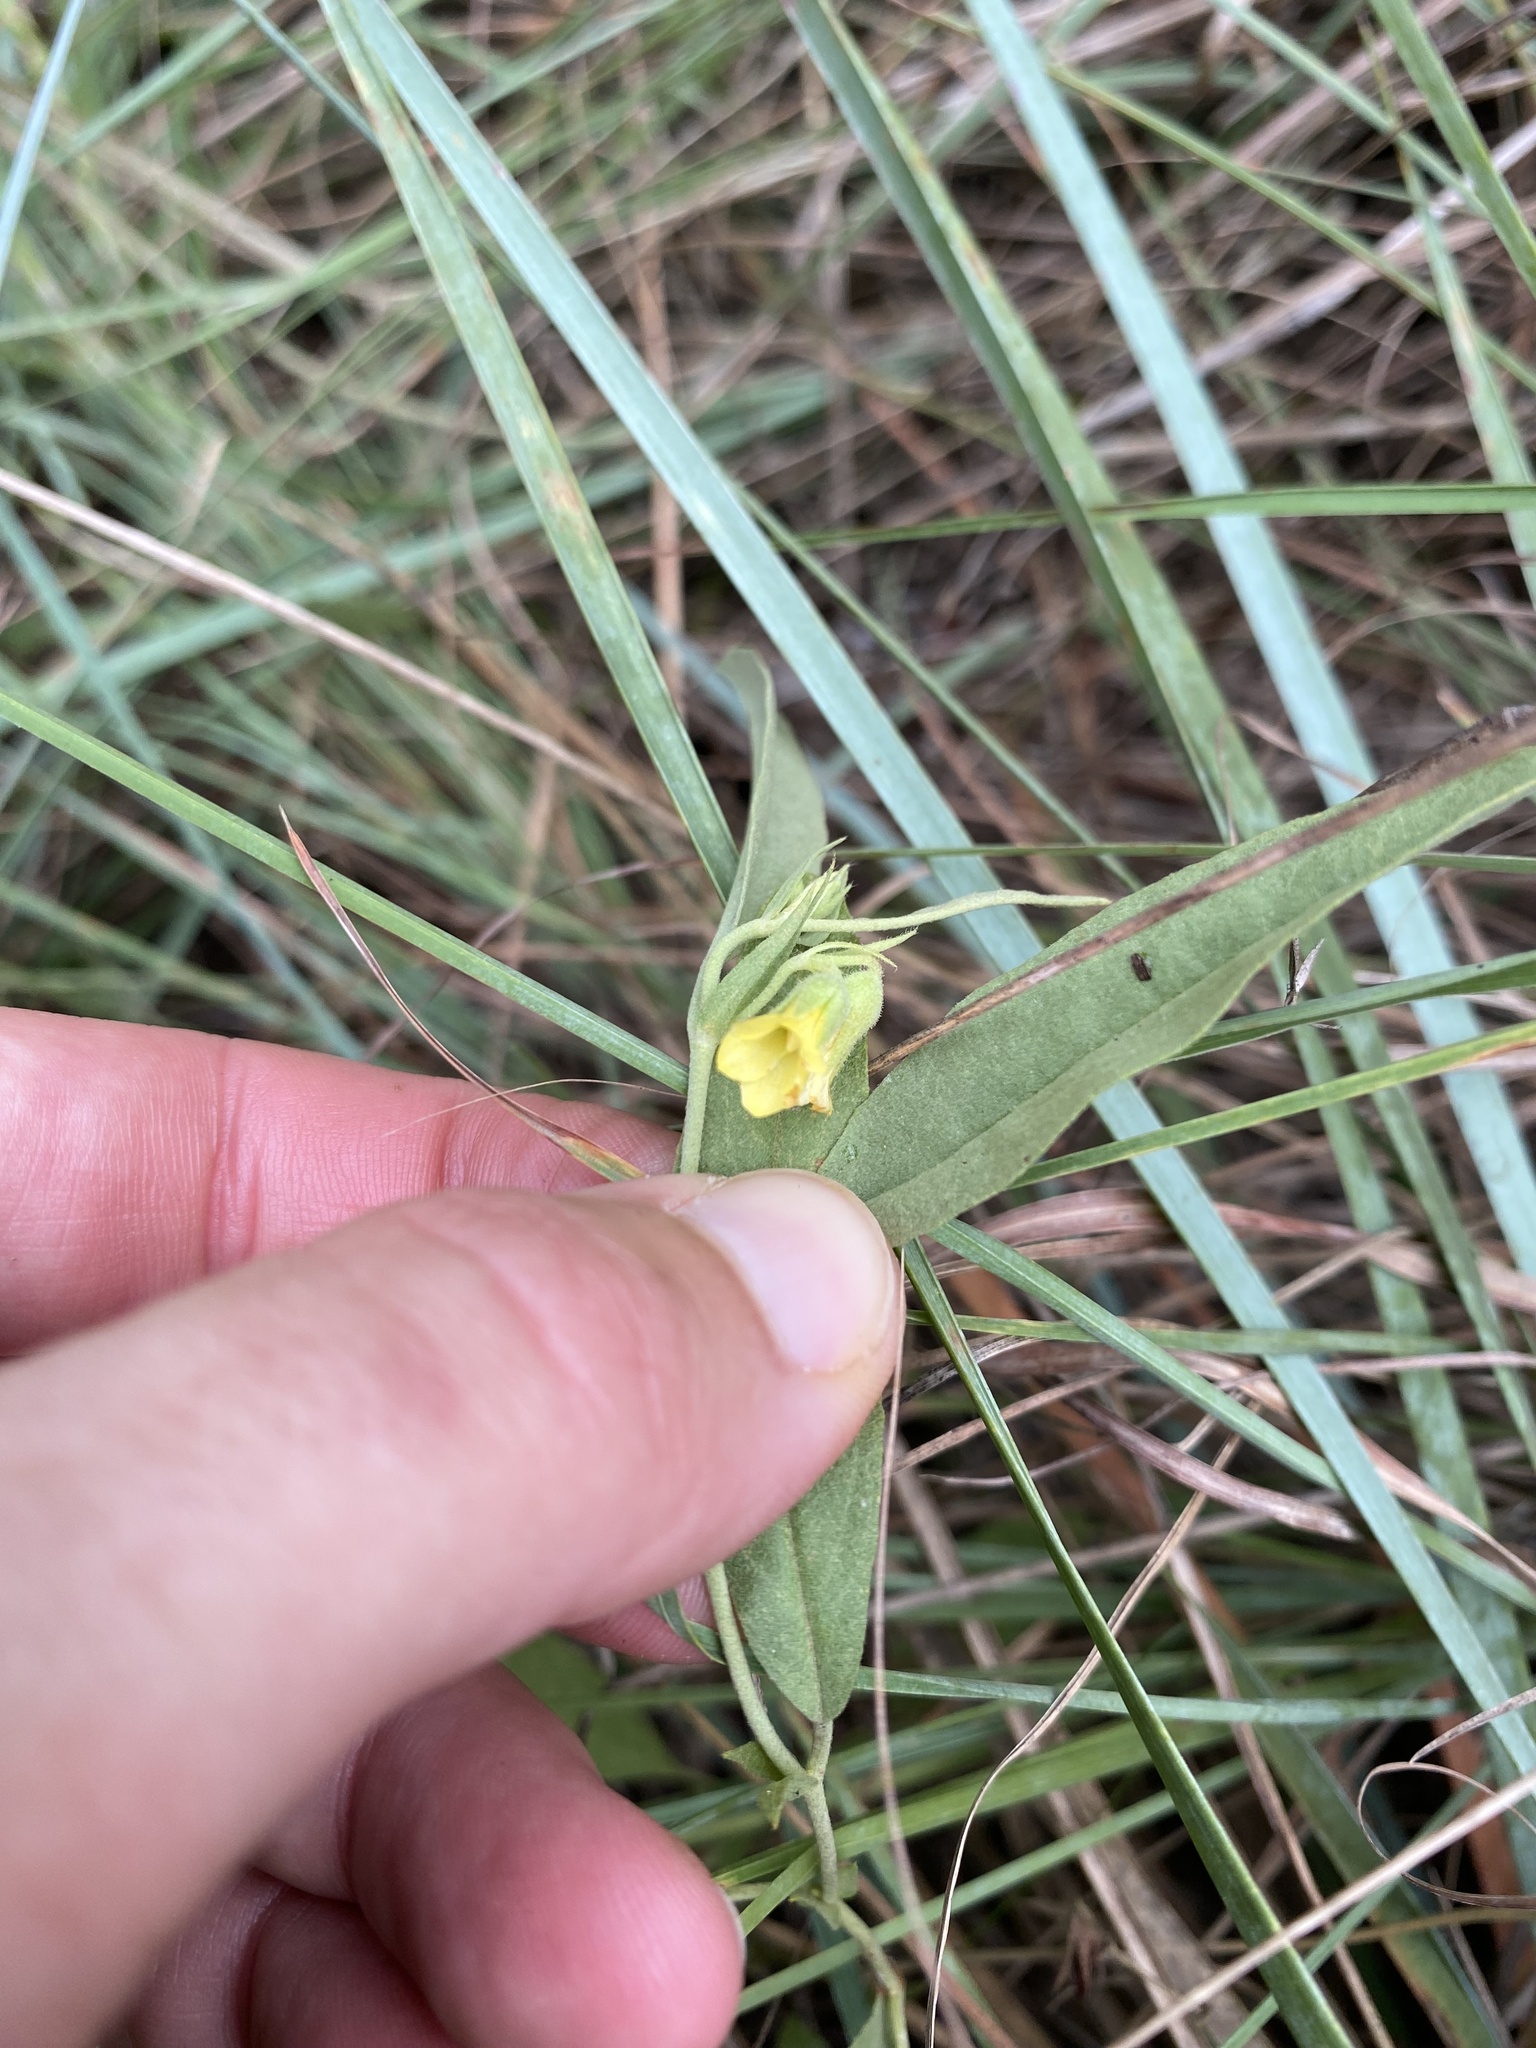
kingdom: Plantae
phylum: Tracheophyta
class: Magnoliopsida
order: Malvales
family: Malvaceae
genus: Hermannia
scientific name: Hermannia montana
